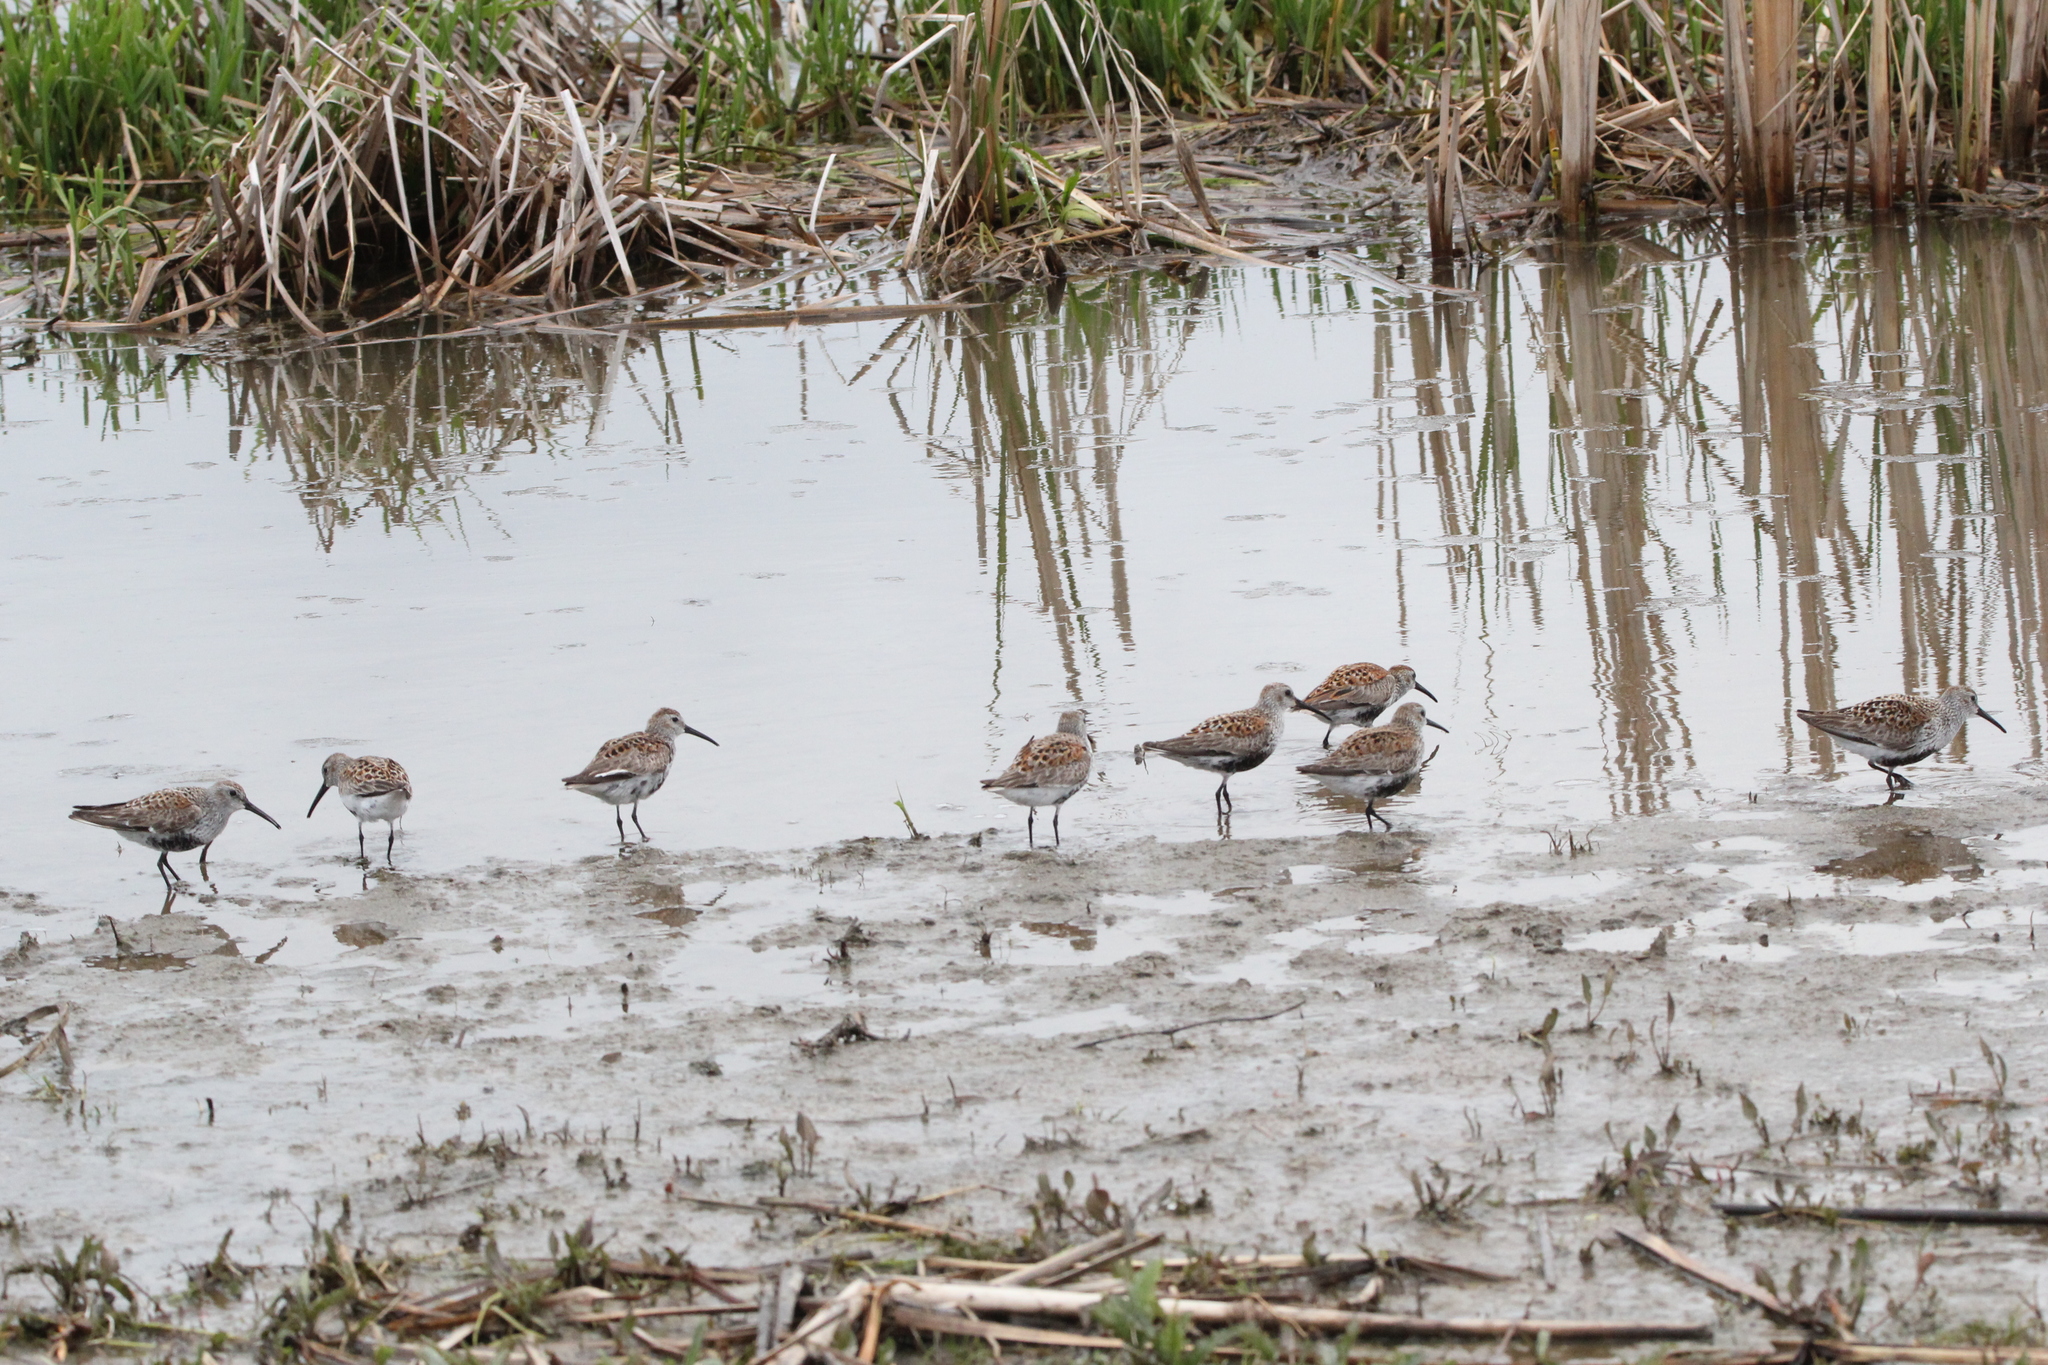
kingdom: Animalia
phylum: Chordata
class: Aves
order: Charadriiformes
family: Scolopacidae
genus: Calidris
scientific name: Calidris alpina
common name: Dunlin
